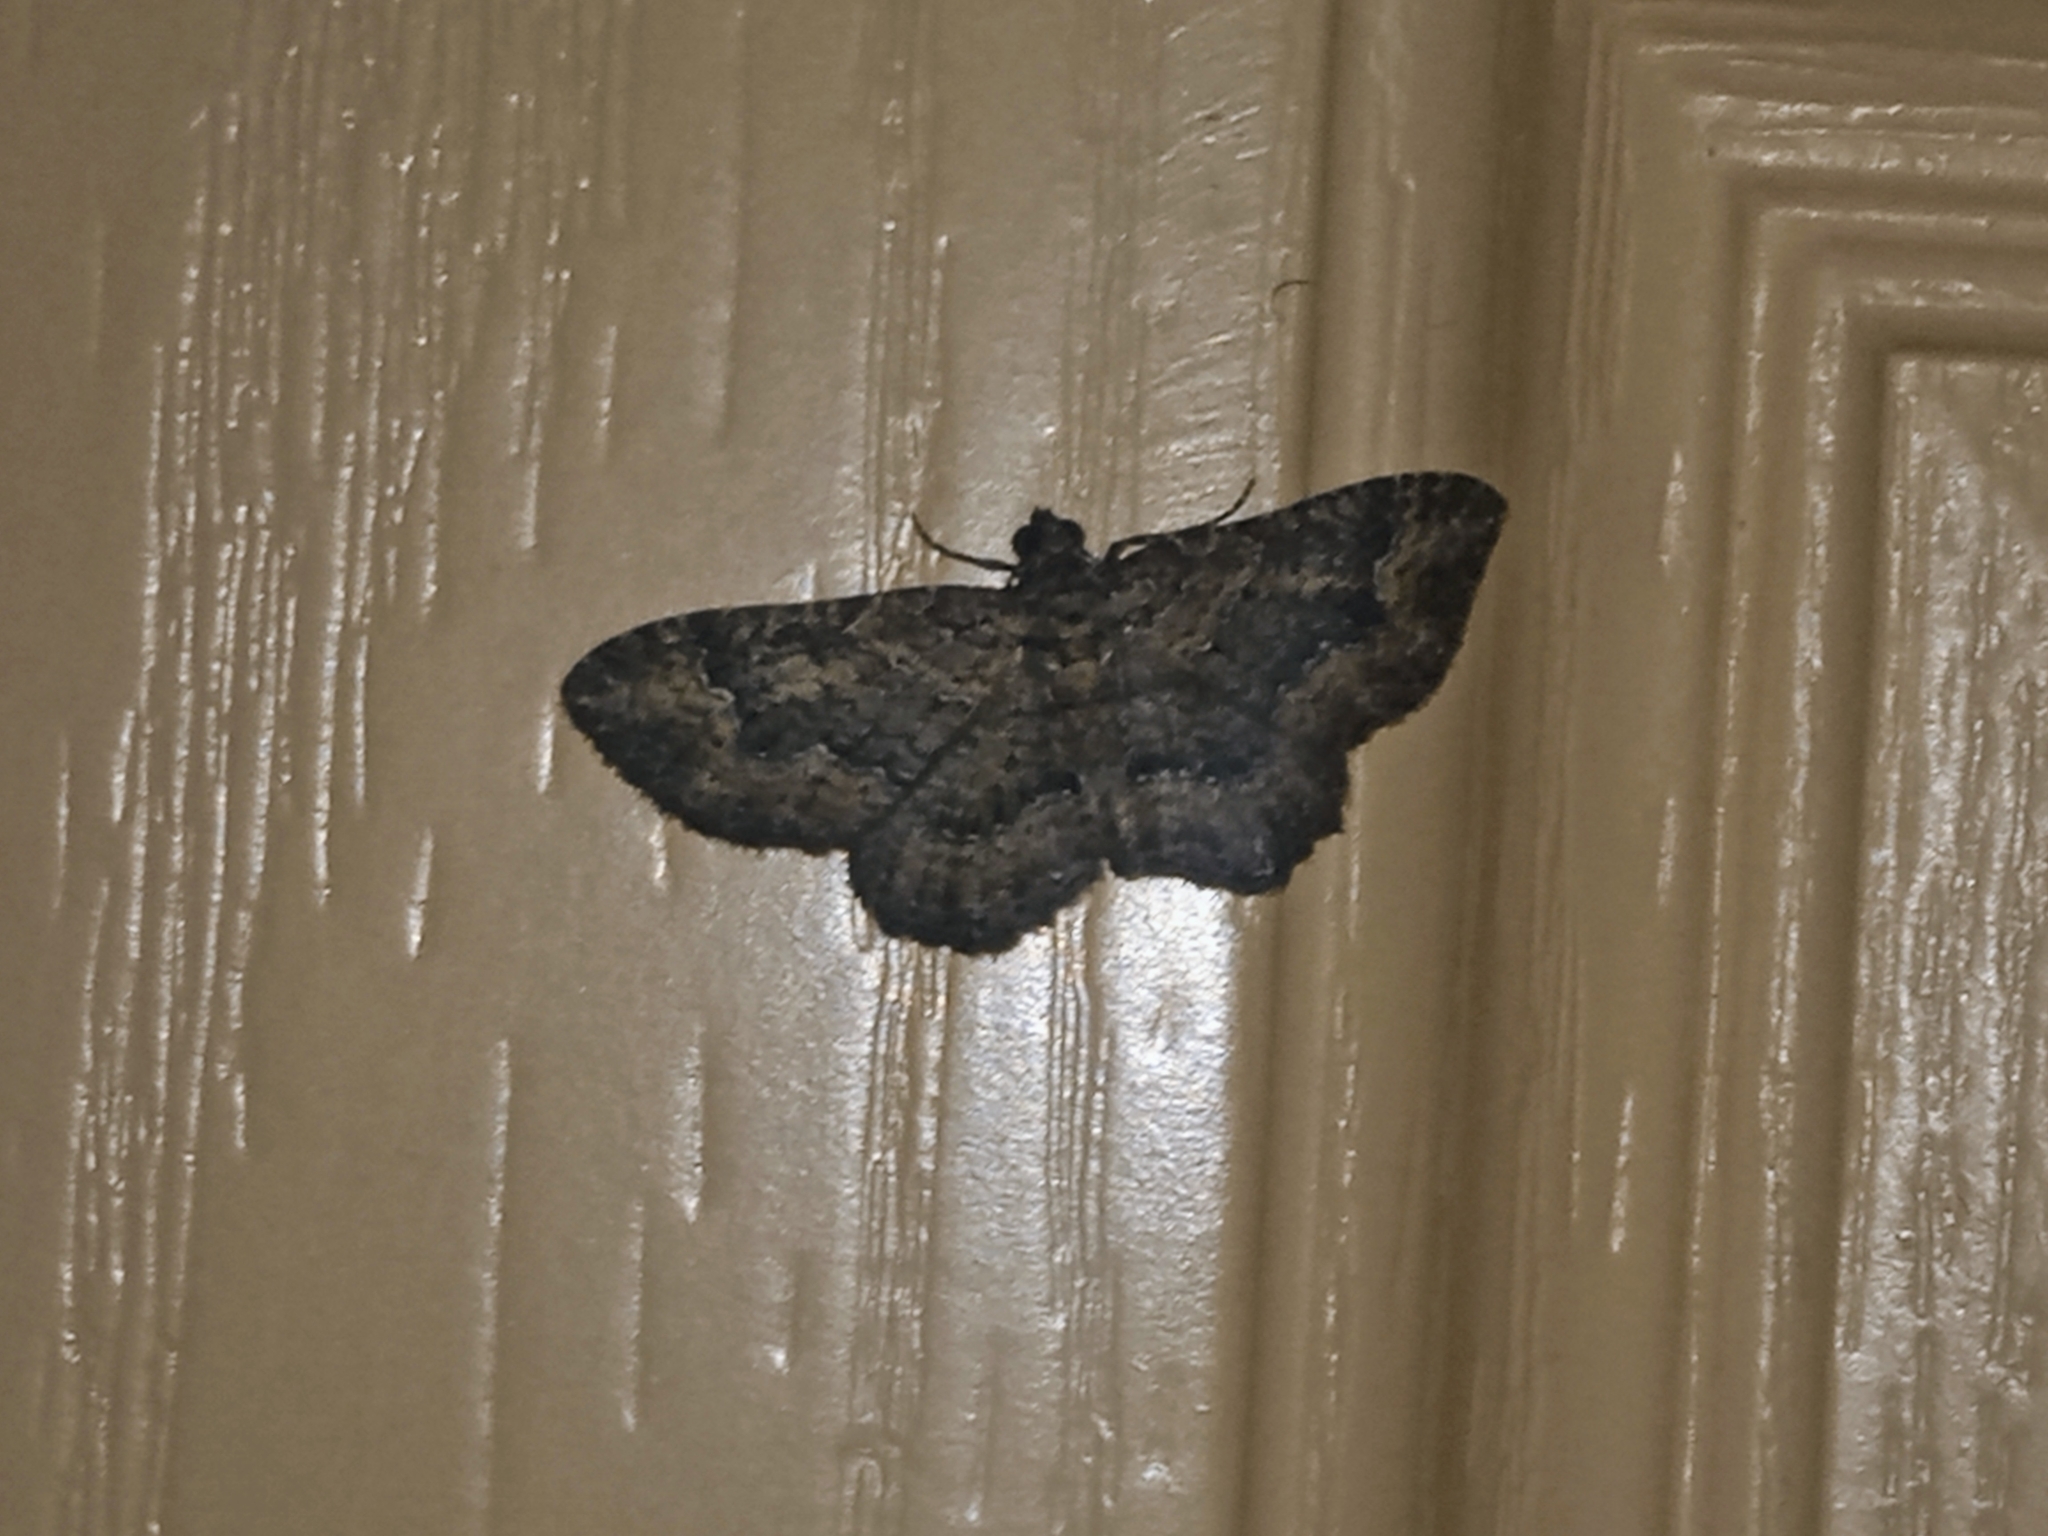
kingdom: Animalia
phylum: Arthropoda
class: Insecta
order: Lepidoptera
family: Geometridae
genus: Disclisioprocta
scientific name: Disclisioprocta stellata
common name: Somber carpet
